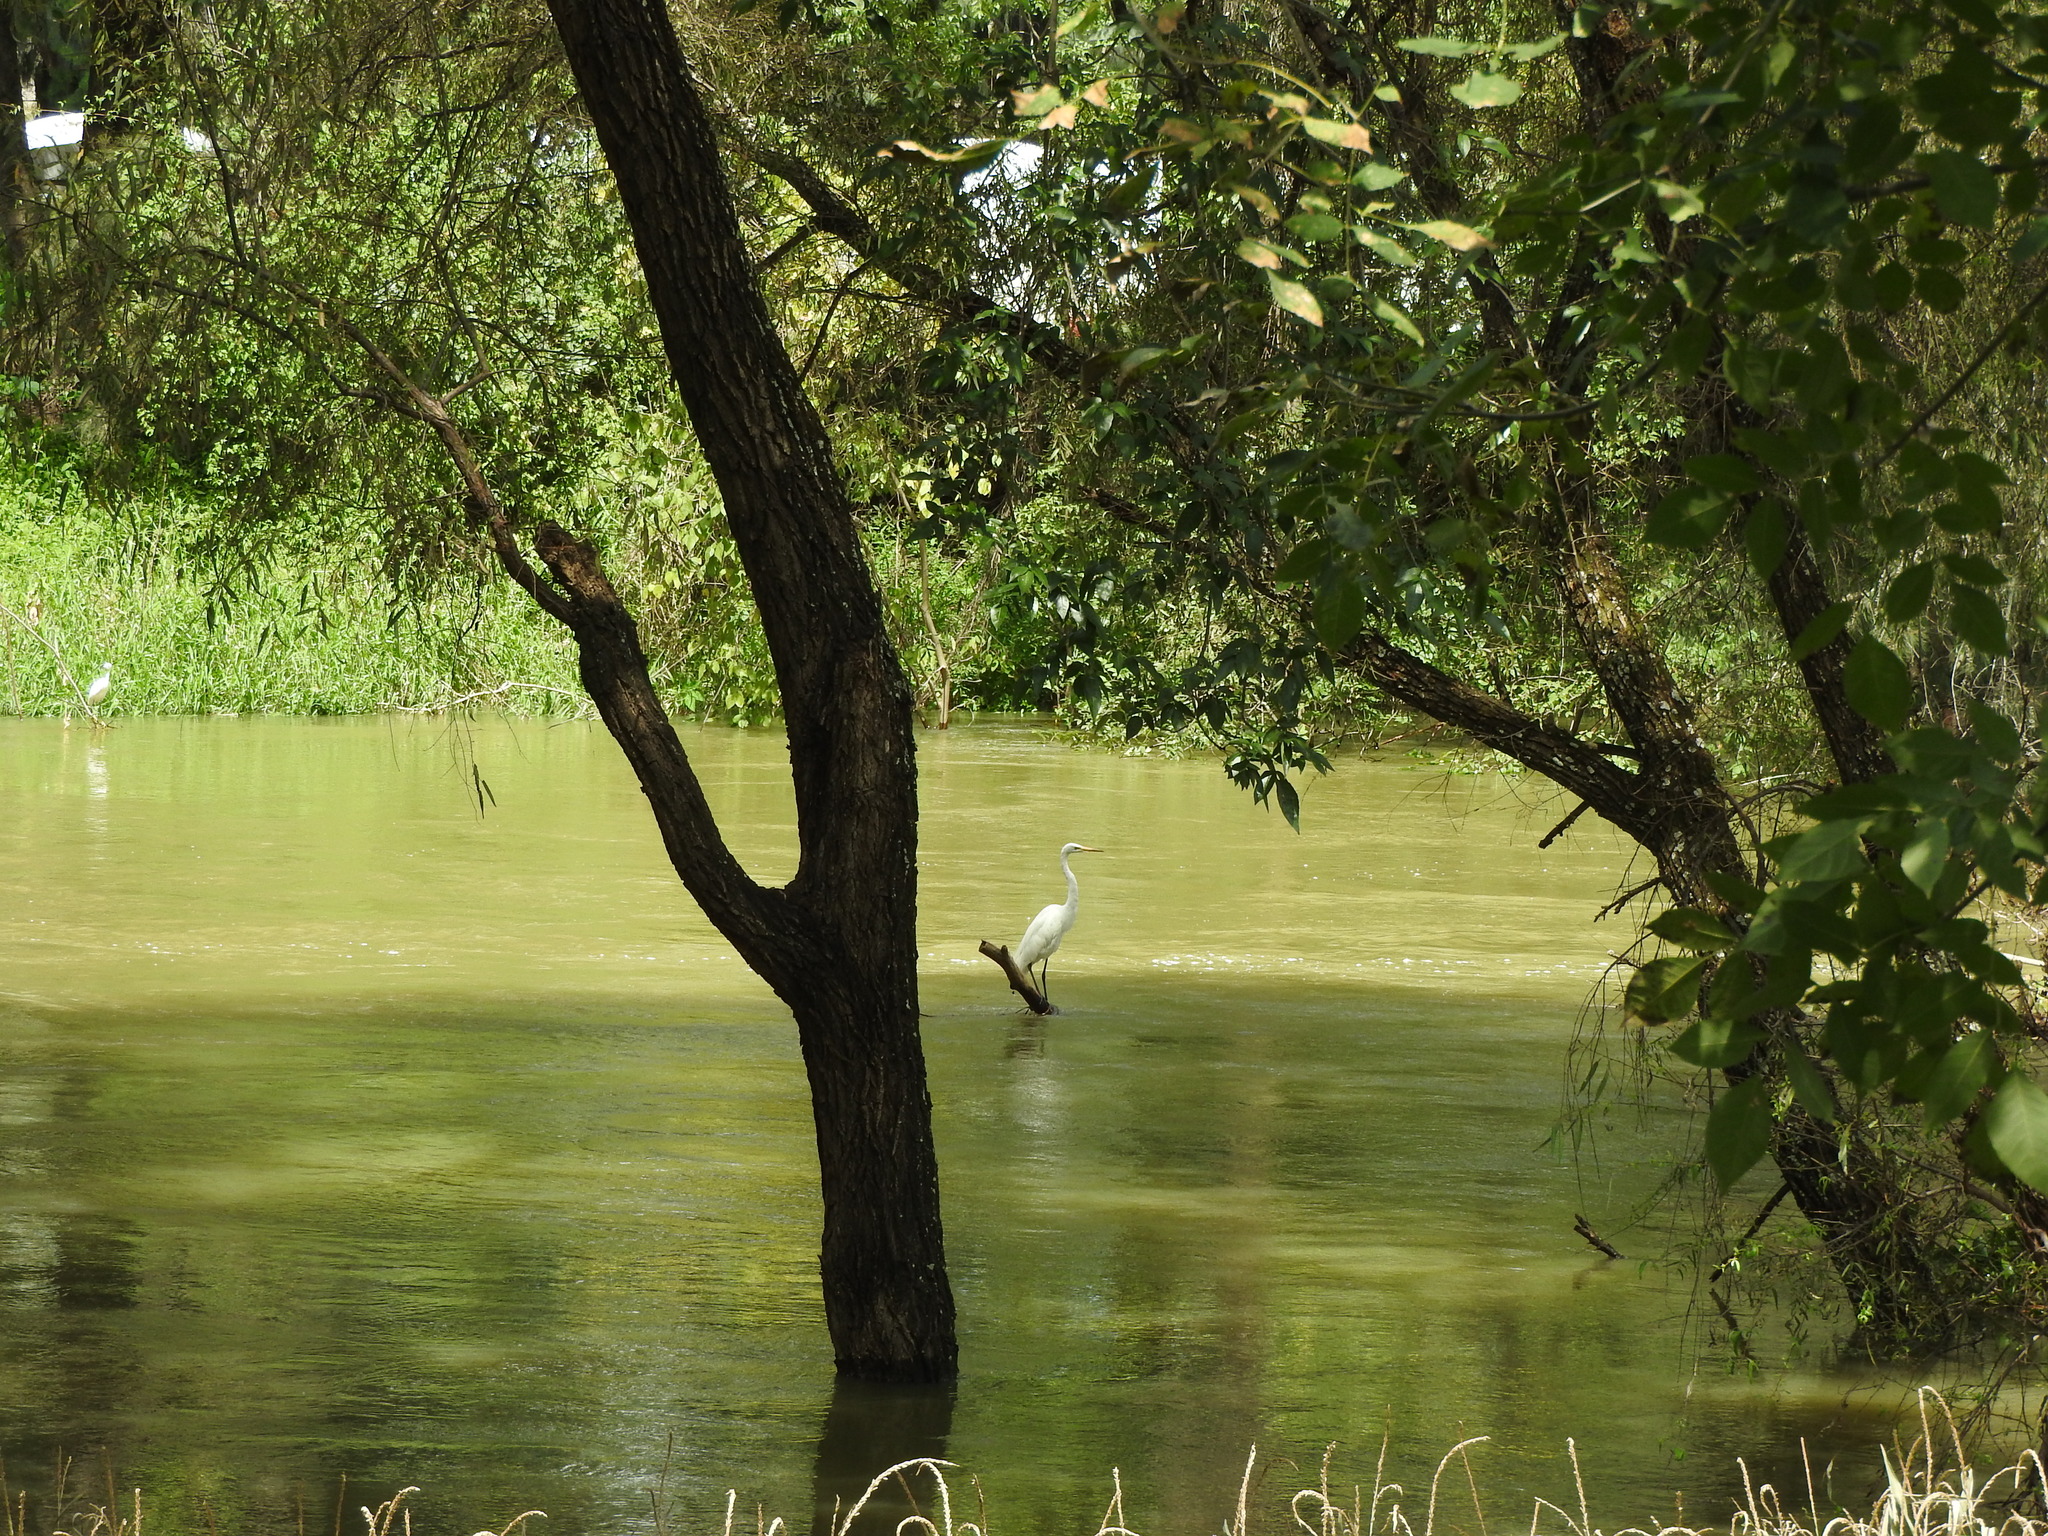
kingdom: Animalia
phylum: Chordata
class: Aves
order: Pelecaniformes
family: Ardeidae
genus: Ardea
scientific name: Ardea alba
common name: Great egret
